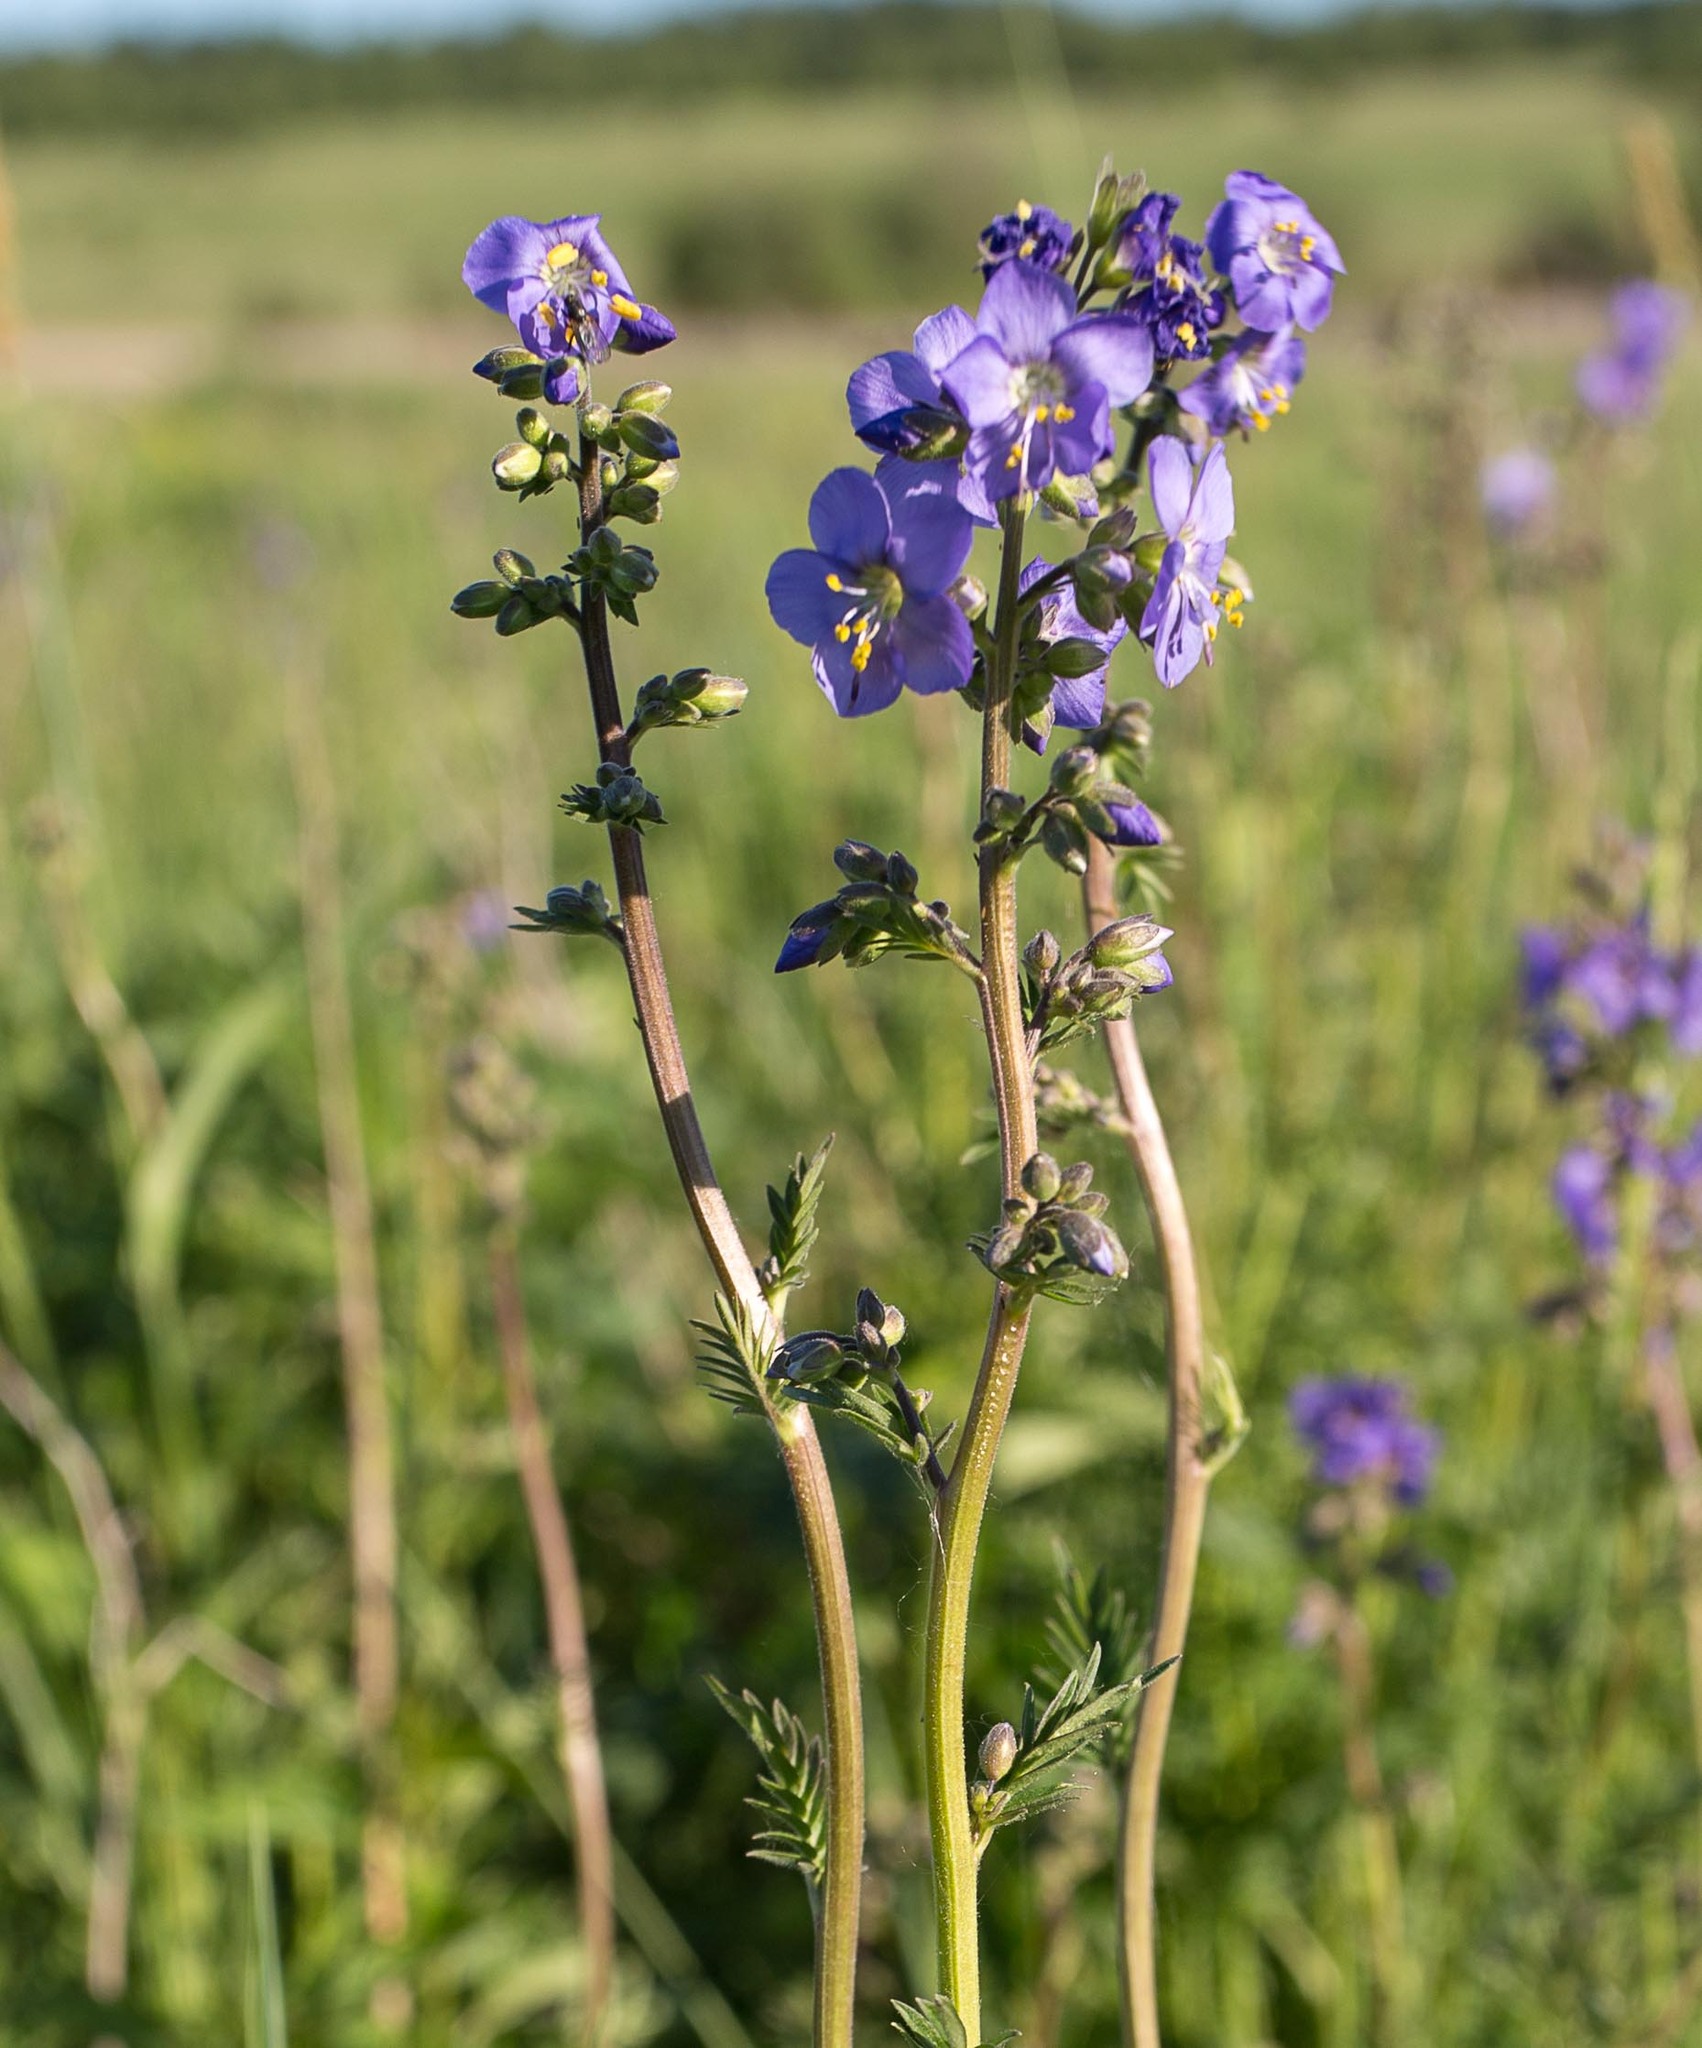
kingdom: Plantae
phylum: Tracheophyta
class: Magnoliopsida
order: Ericales
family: Polemoniaceae
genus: Polemonium
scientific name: Polemonium caeruleum
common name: Jacob's-ladder
